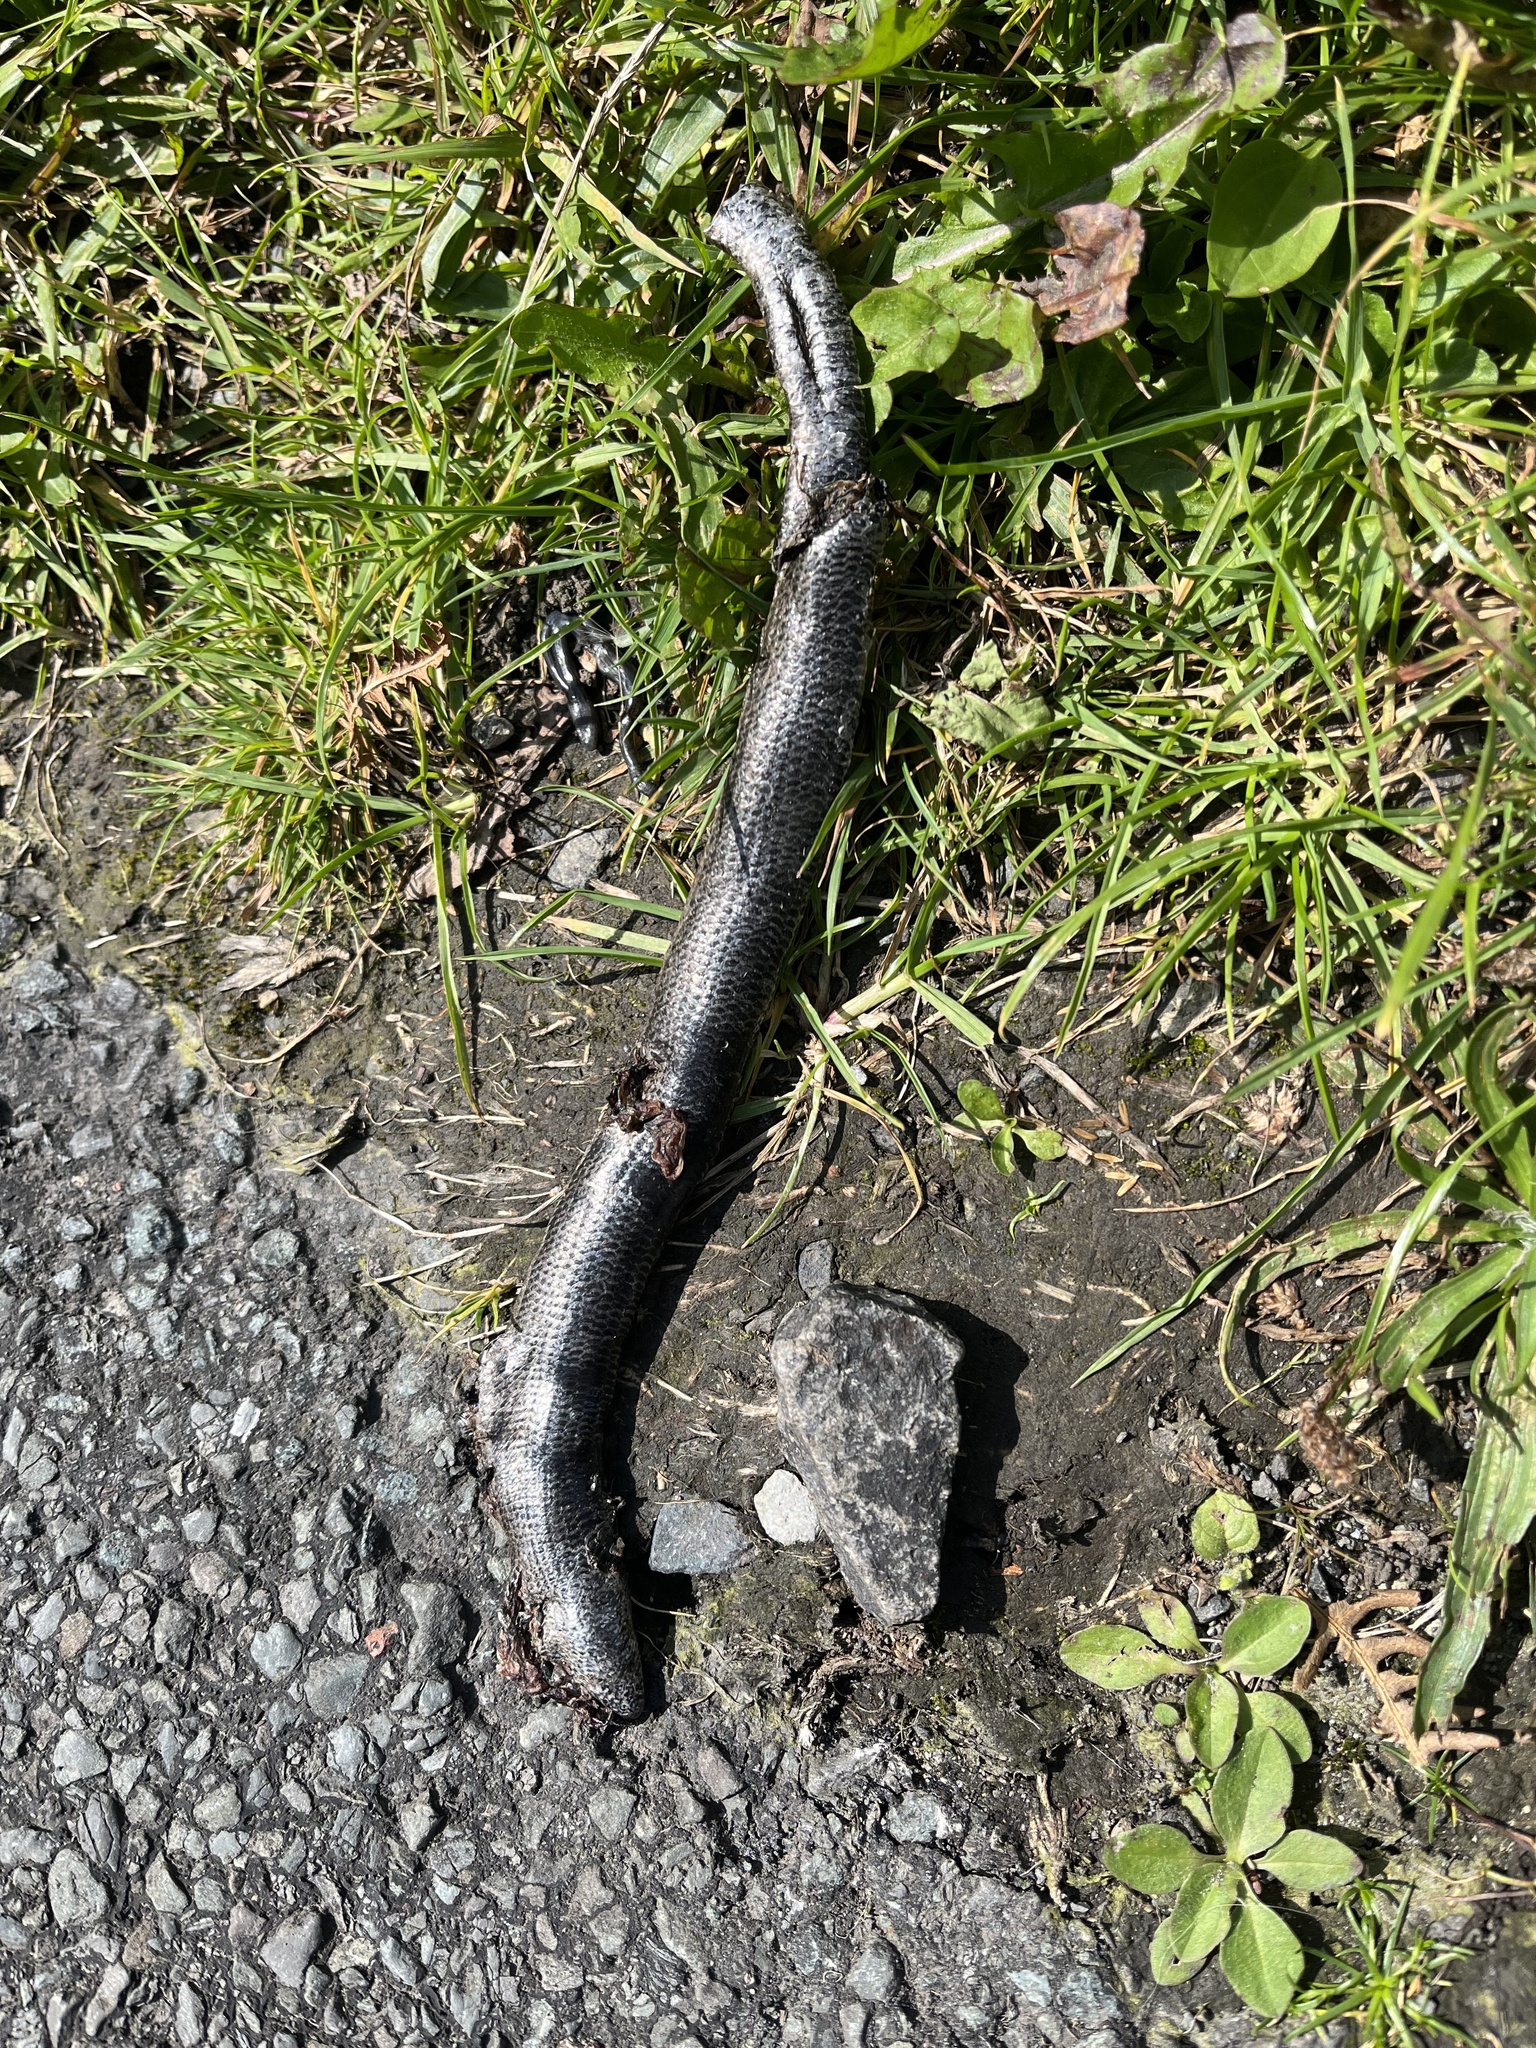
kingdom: Animalia
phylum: Chordata
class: Squamata
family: Anguidae
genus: Anguis
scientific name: Anguis fragilis
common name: Slow worm
